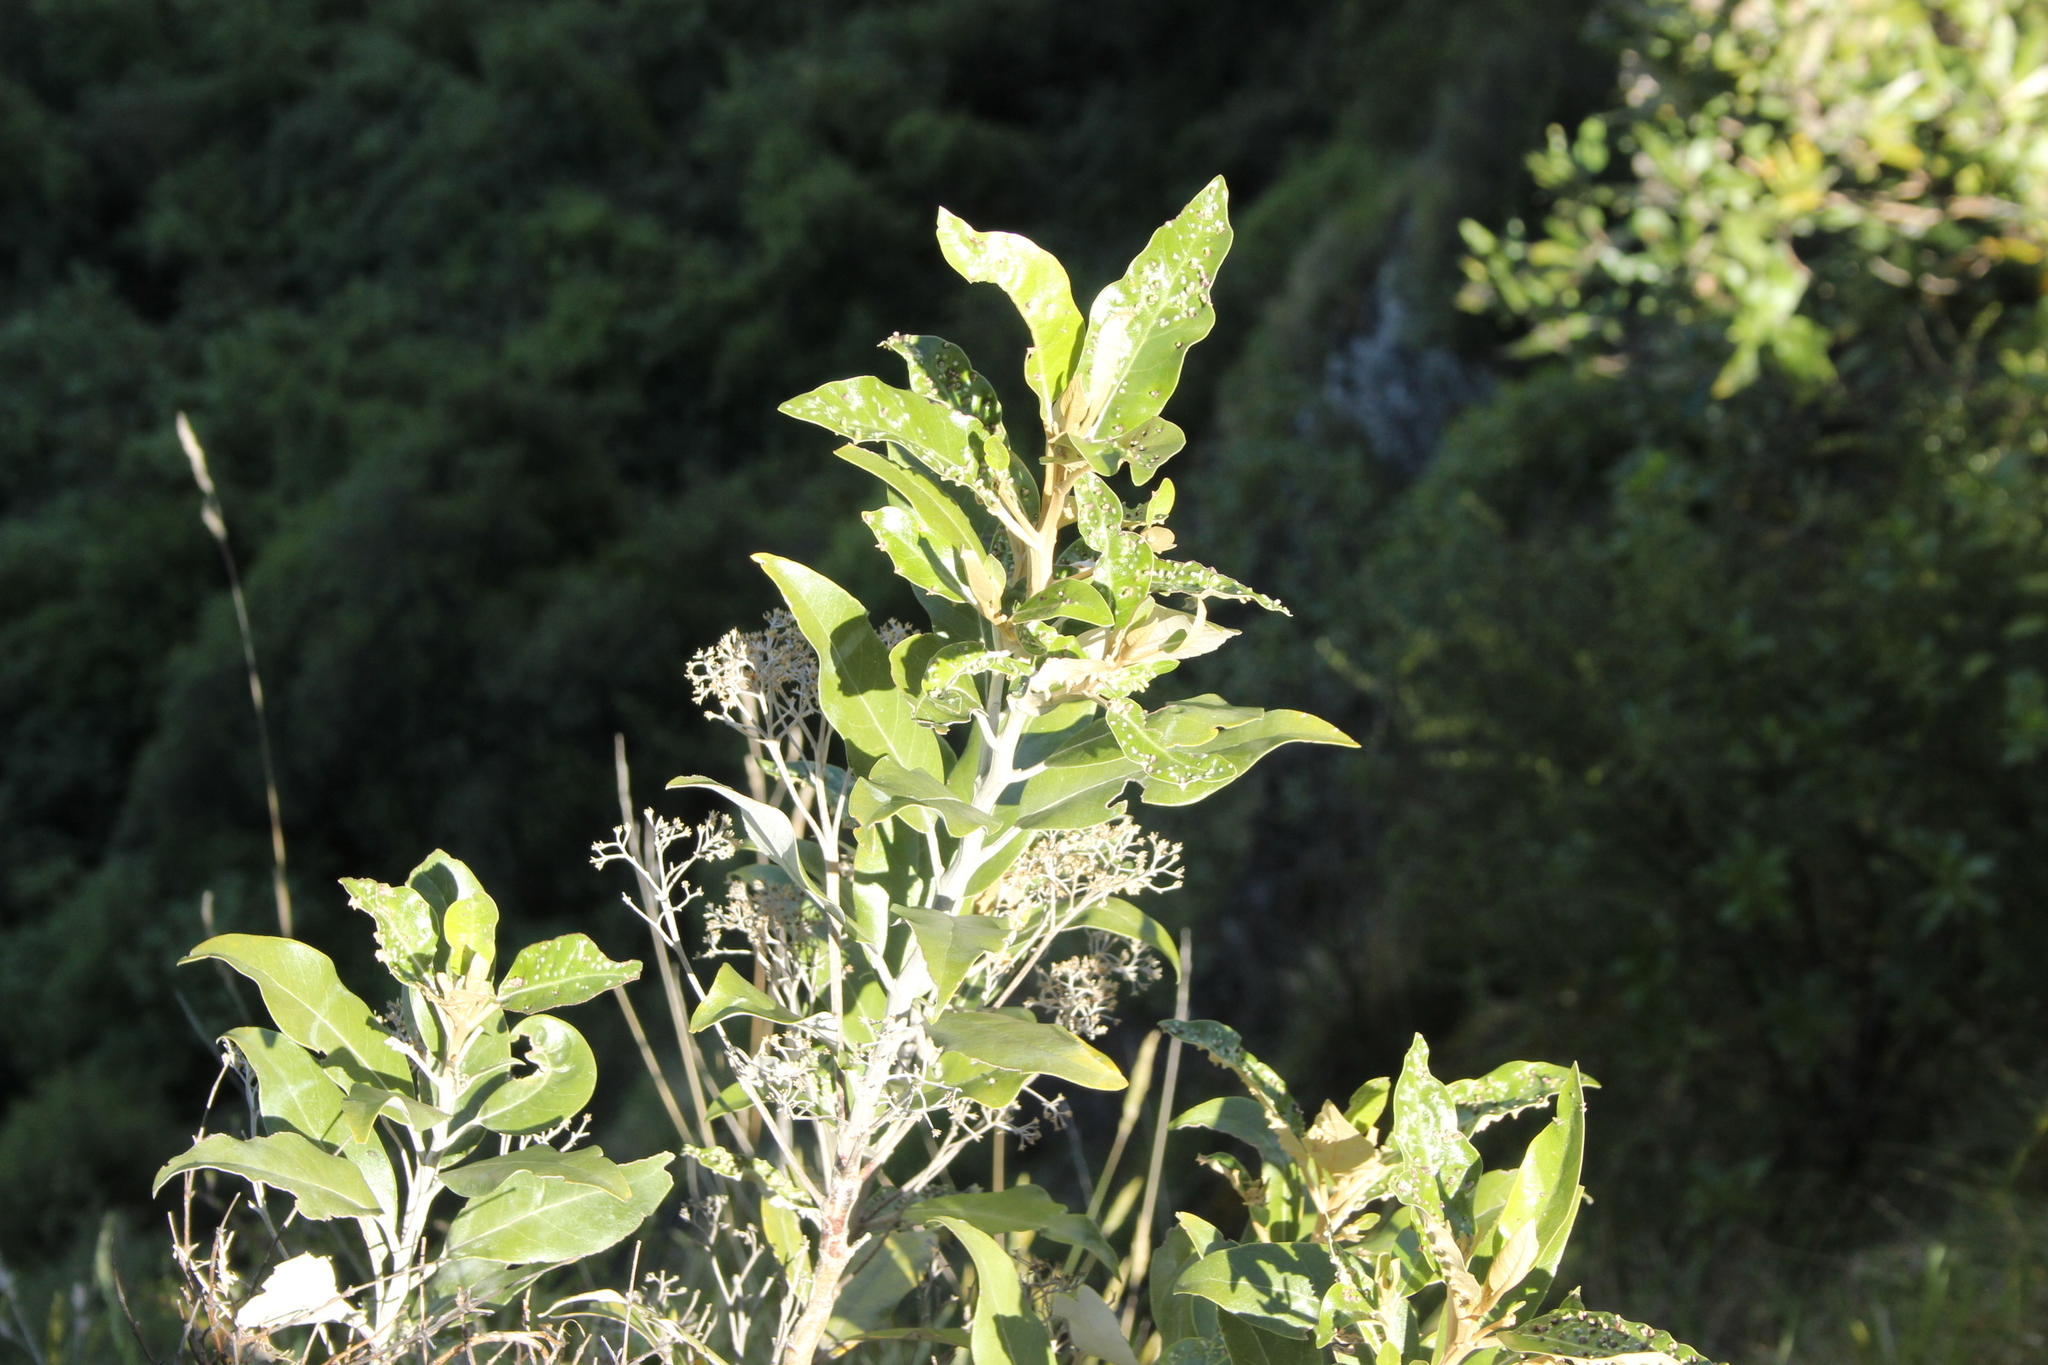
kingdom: Plantae
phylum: Tracheophyta
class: Magnoliopsida
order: Asterales
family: Asteraceae
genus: Olearia
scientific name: Olearia avicenniifolia
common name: Mangrove-leaf daisybush
